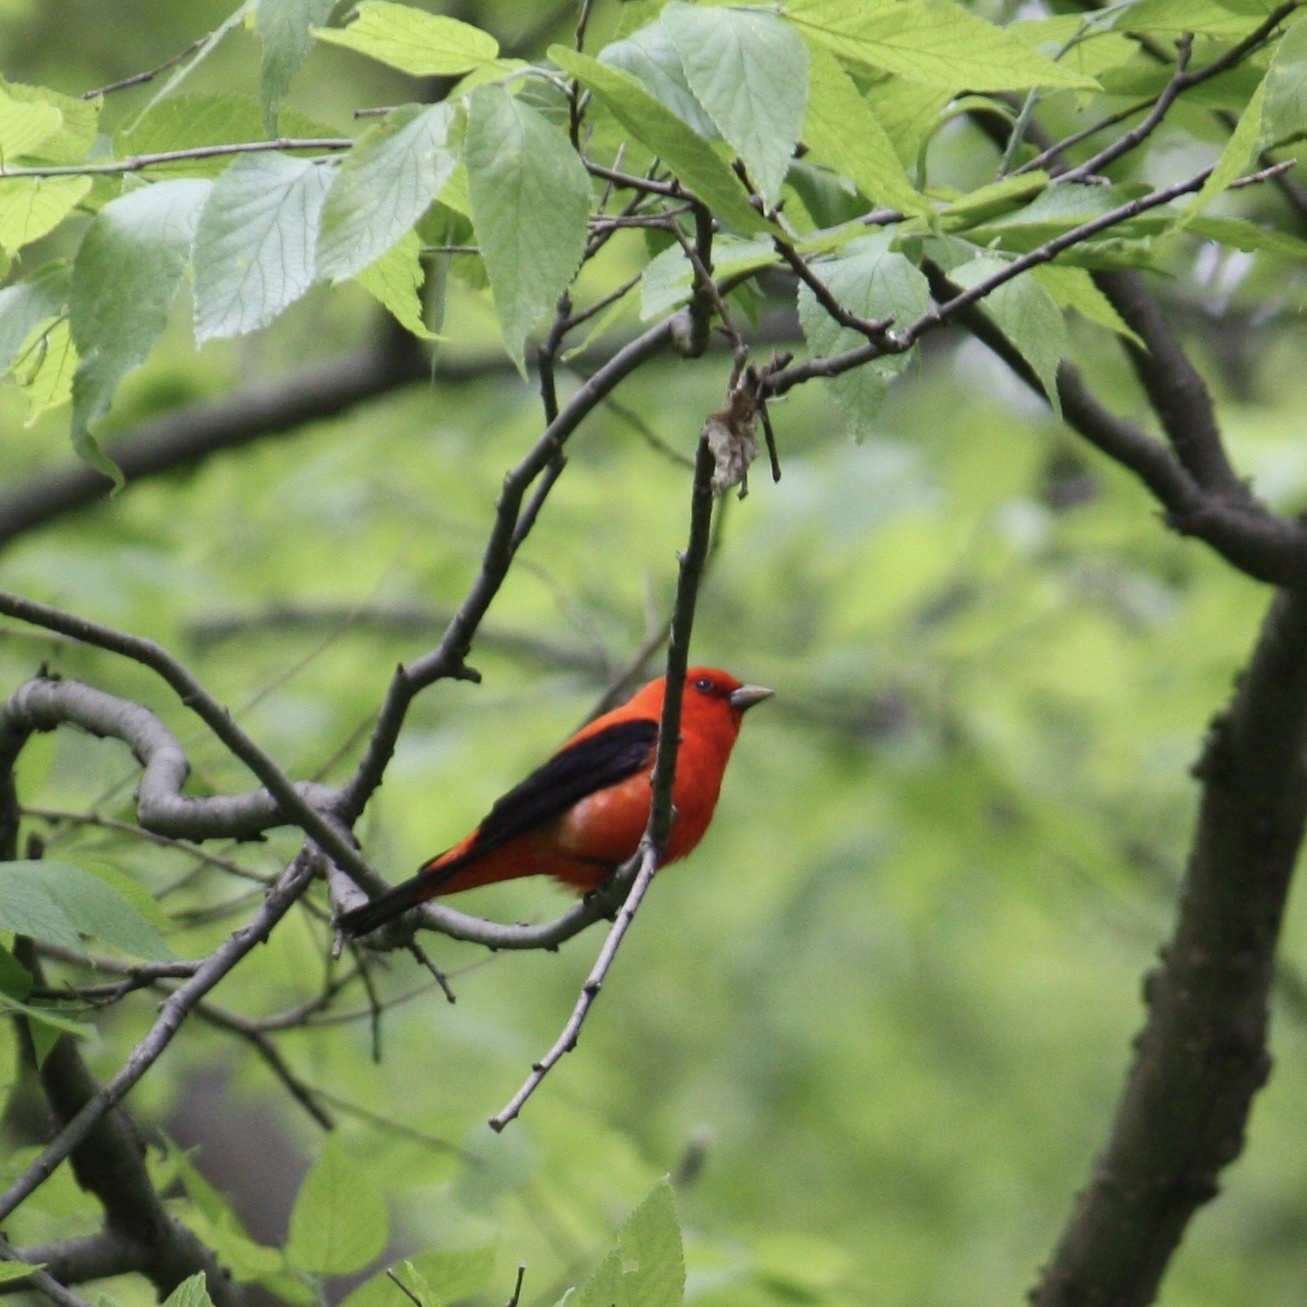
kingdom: Animalia
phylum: Chordata
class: Aves
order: Passeriformes
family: Cardinalidae
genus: Piranga
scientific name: Piranga olivacea
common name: Scarlet tanager
